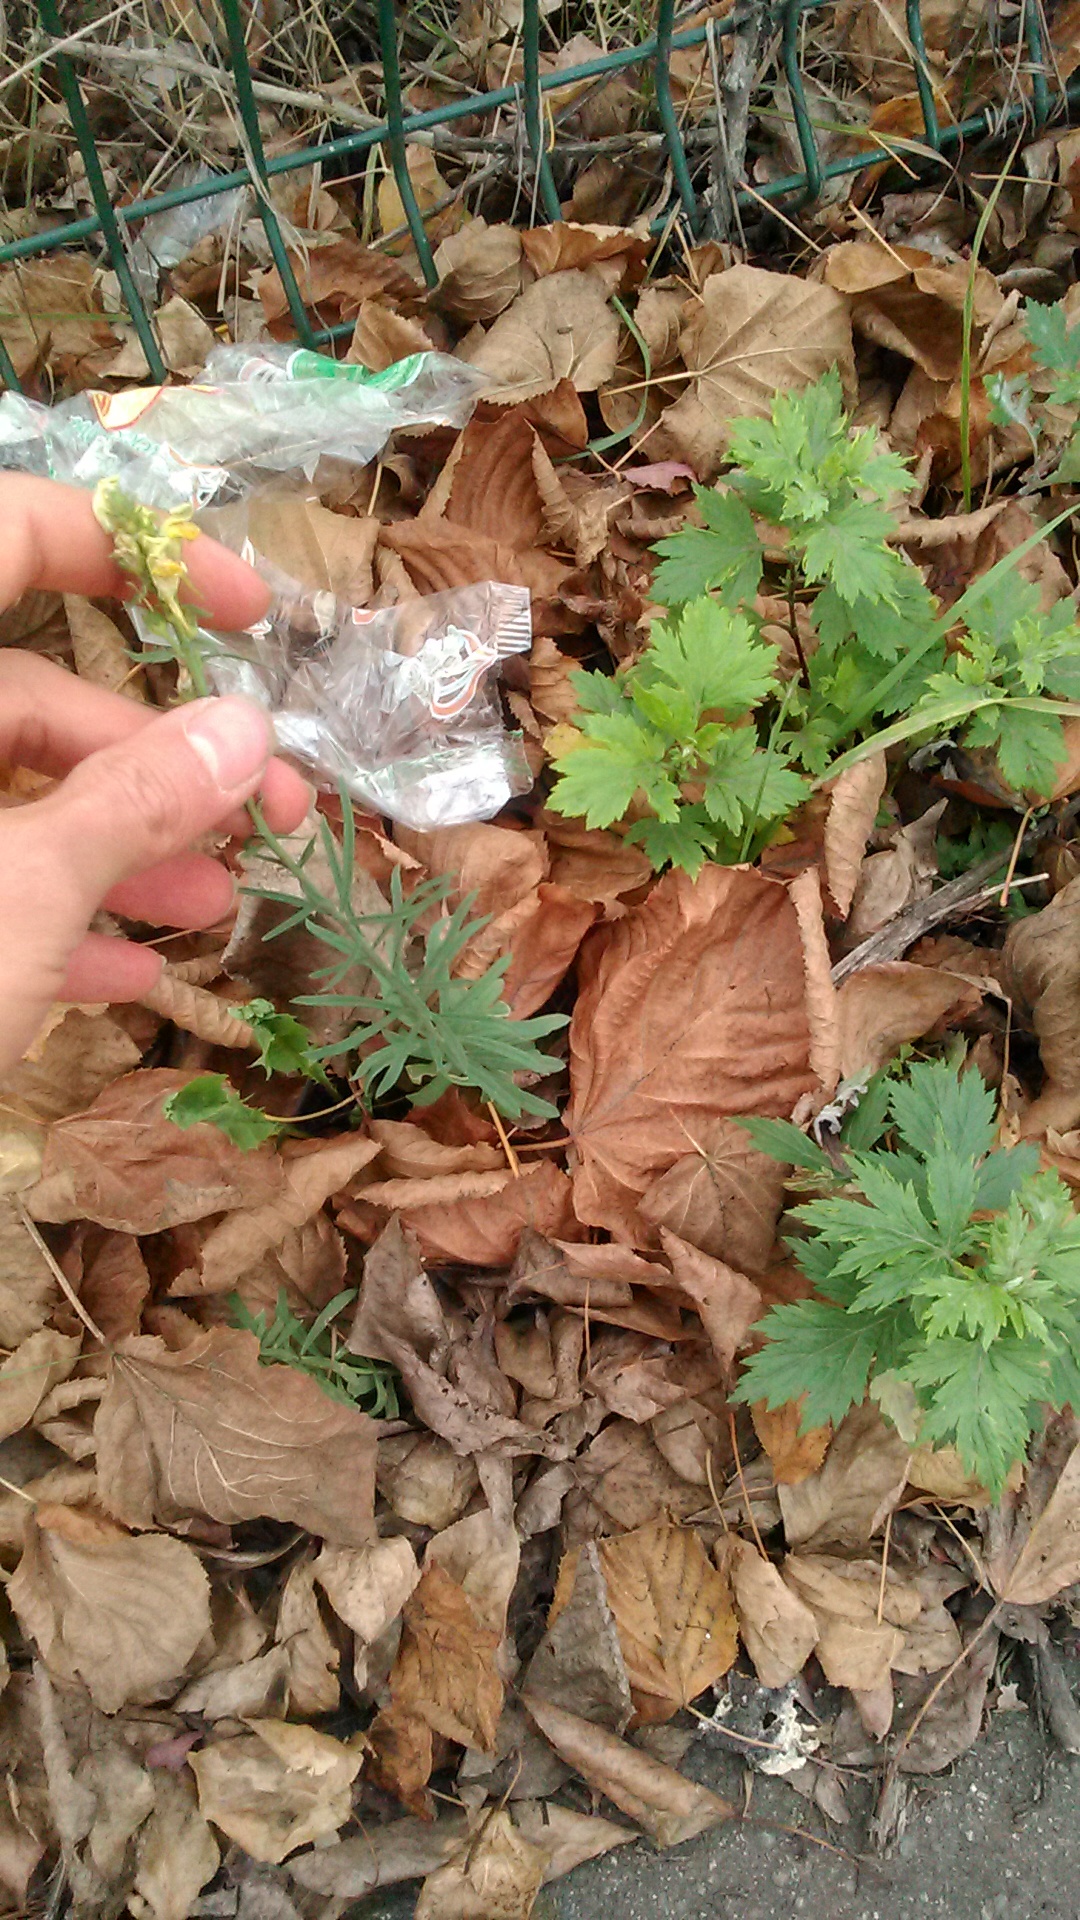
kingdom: Plantae
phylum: Tracheophyta
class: Magnoliopsida
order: Lamiales
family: Plantaginaceae
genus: Linaria
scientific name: Linaria vulgaris
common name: Butter and eggs
